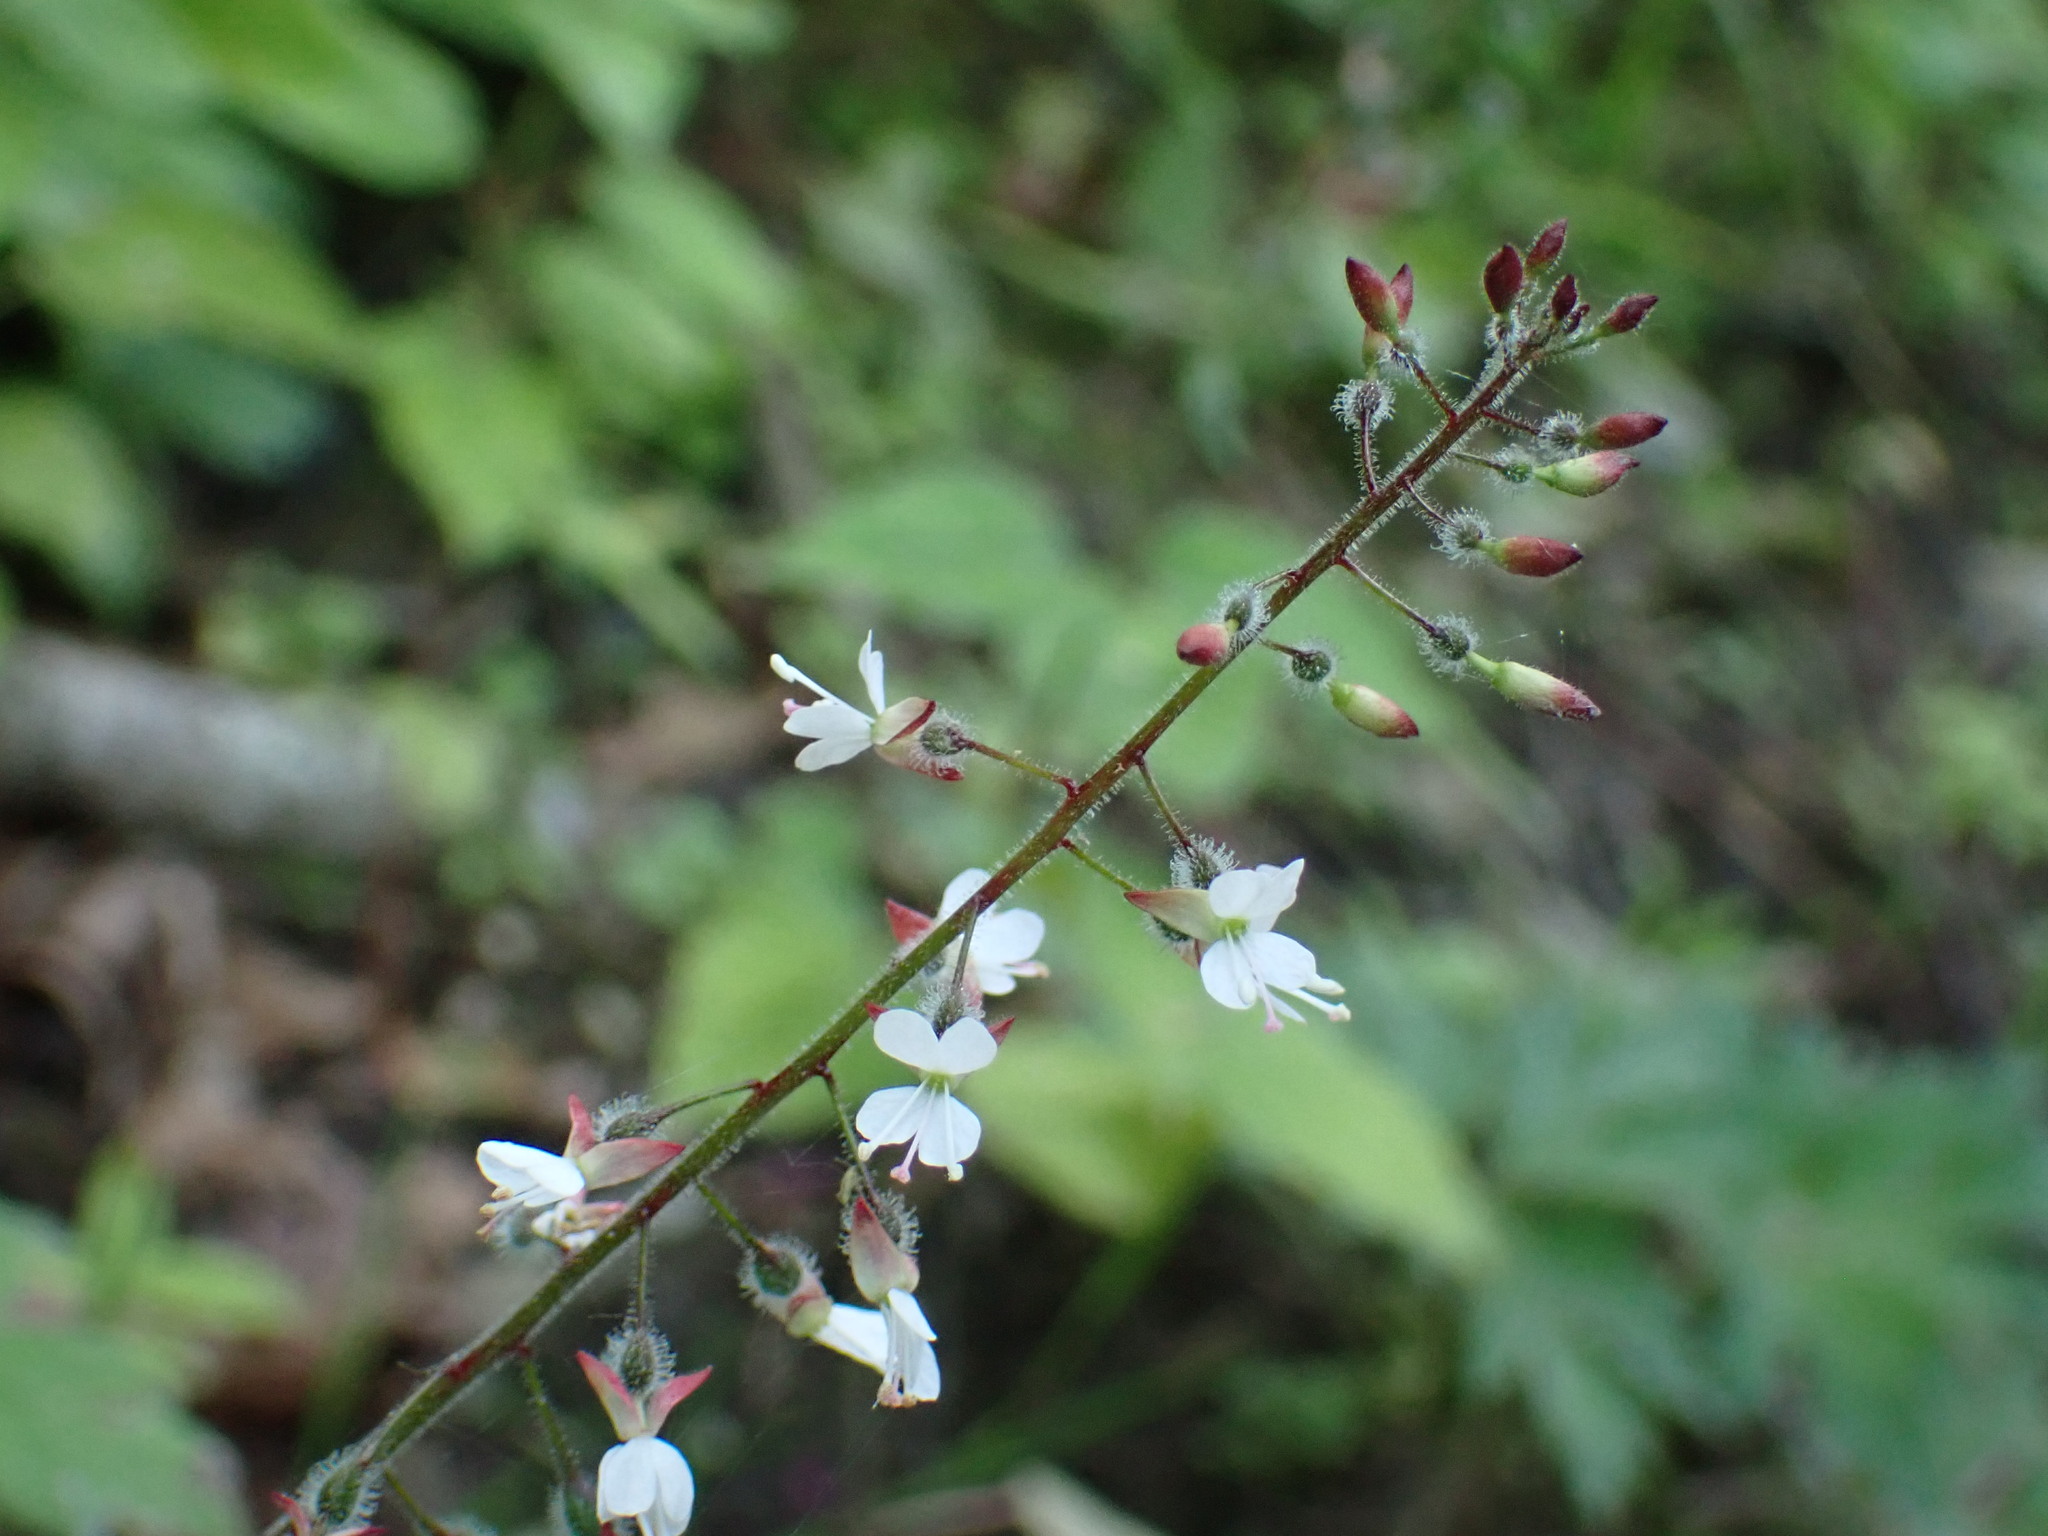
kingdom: Plantae
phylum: Tracheophyta
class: Magnoliopsida
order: Myrtales
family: Onagraceae
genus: Circaea
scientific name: Circaea lutetiana
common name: Enchanter's-nightshade
